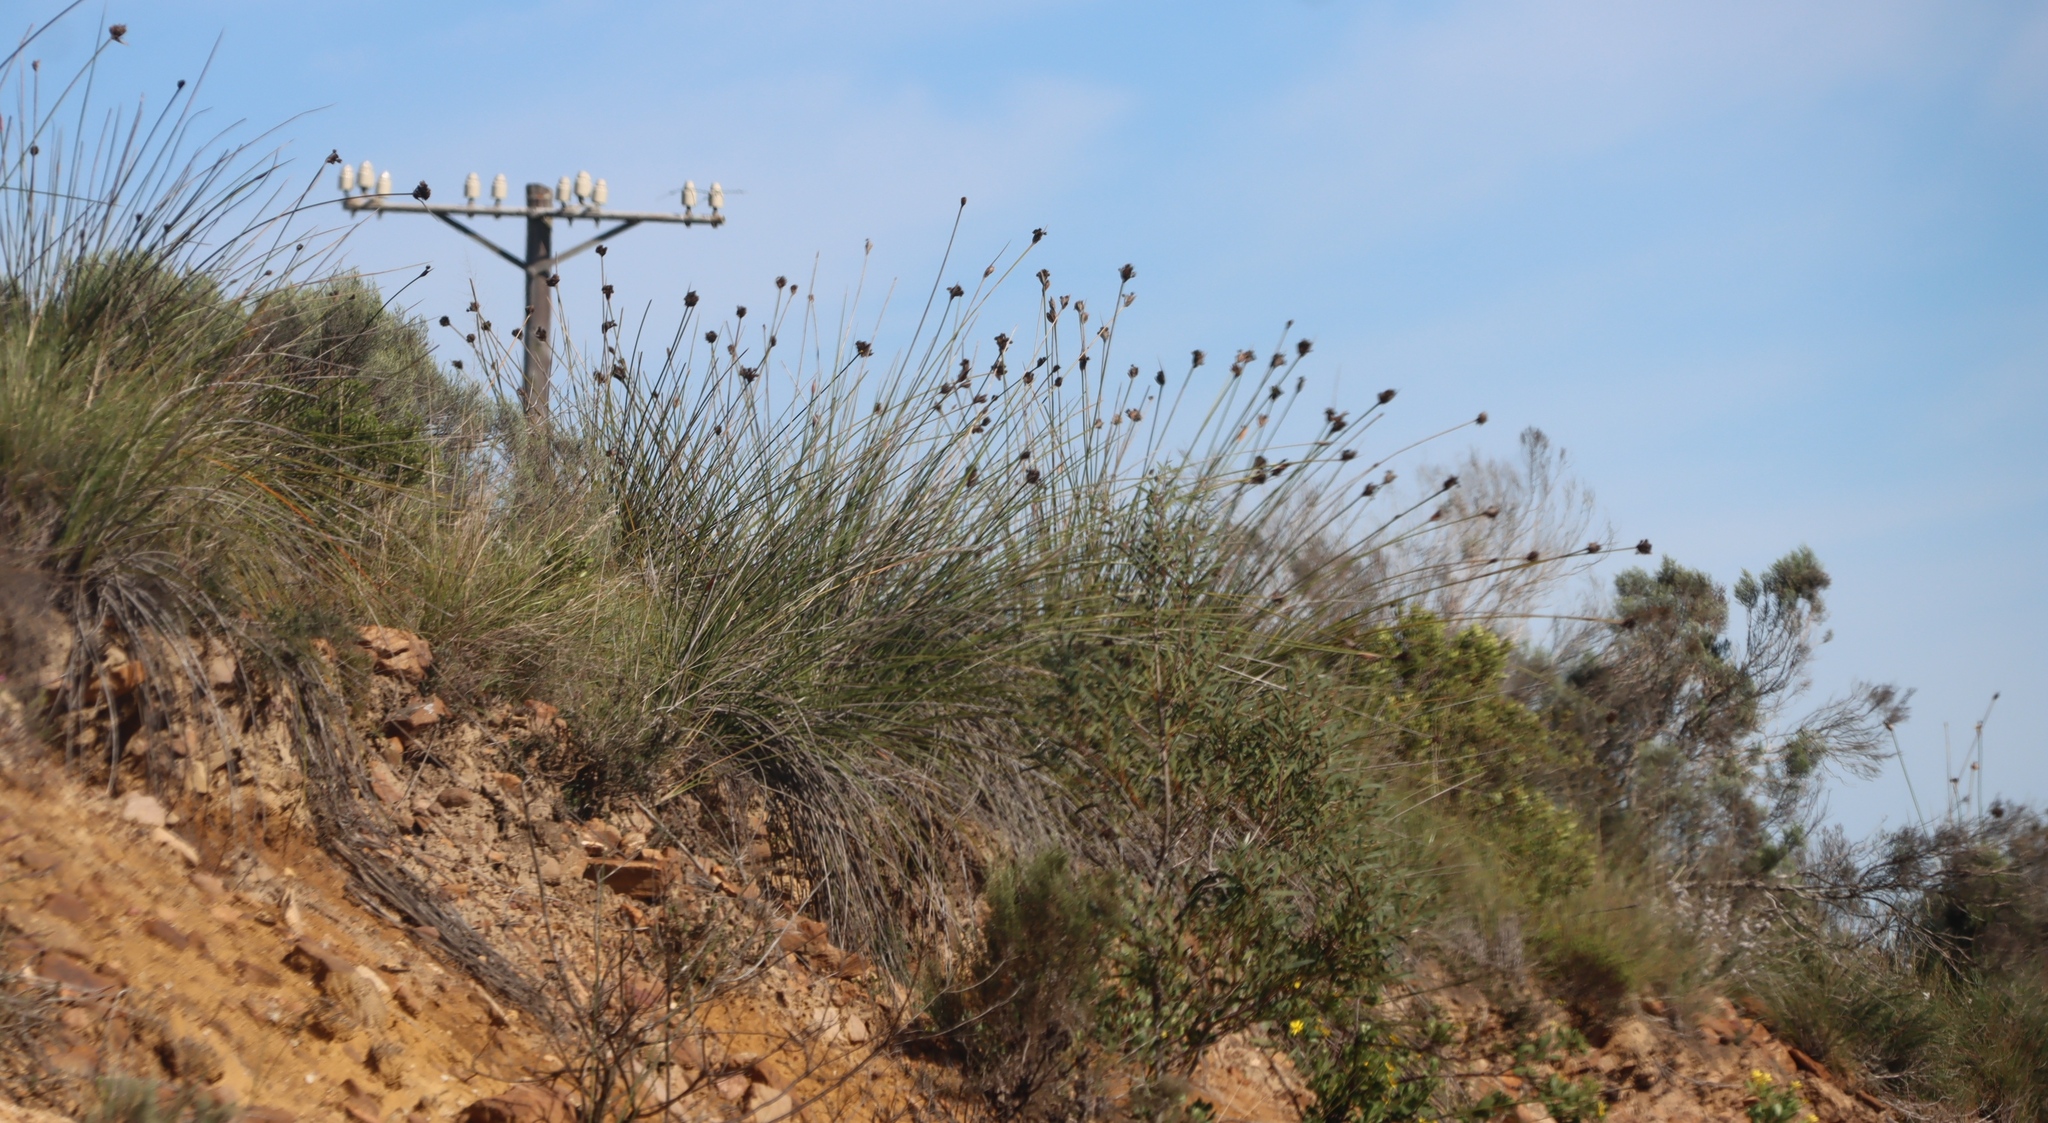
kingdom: Plantae
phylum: Tracheophyta
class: Liliopsida
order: Asparagales
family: Iridaceae
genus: Bobartia
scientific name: Bobartia robusta
